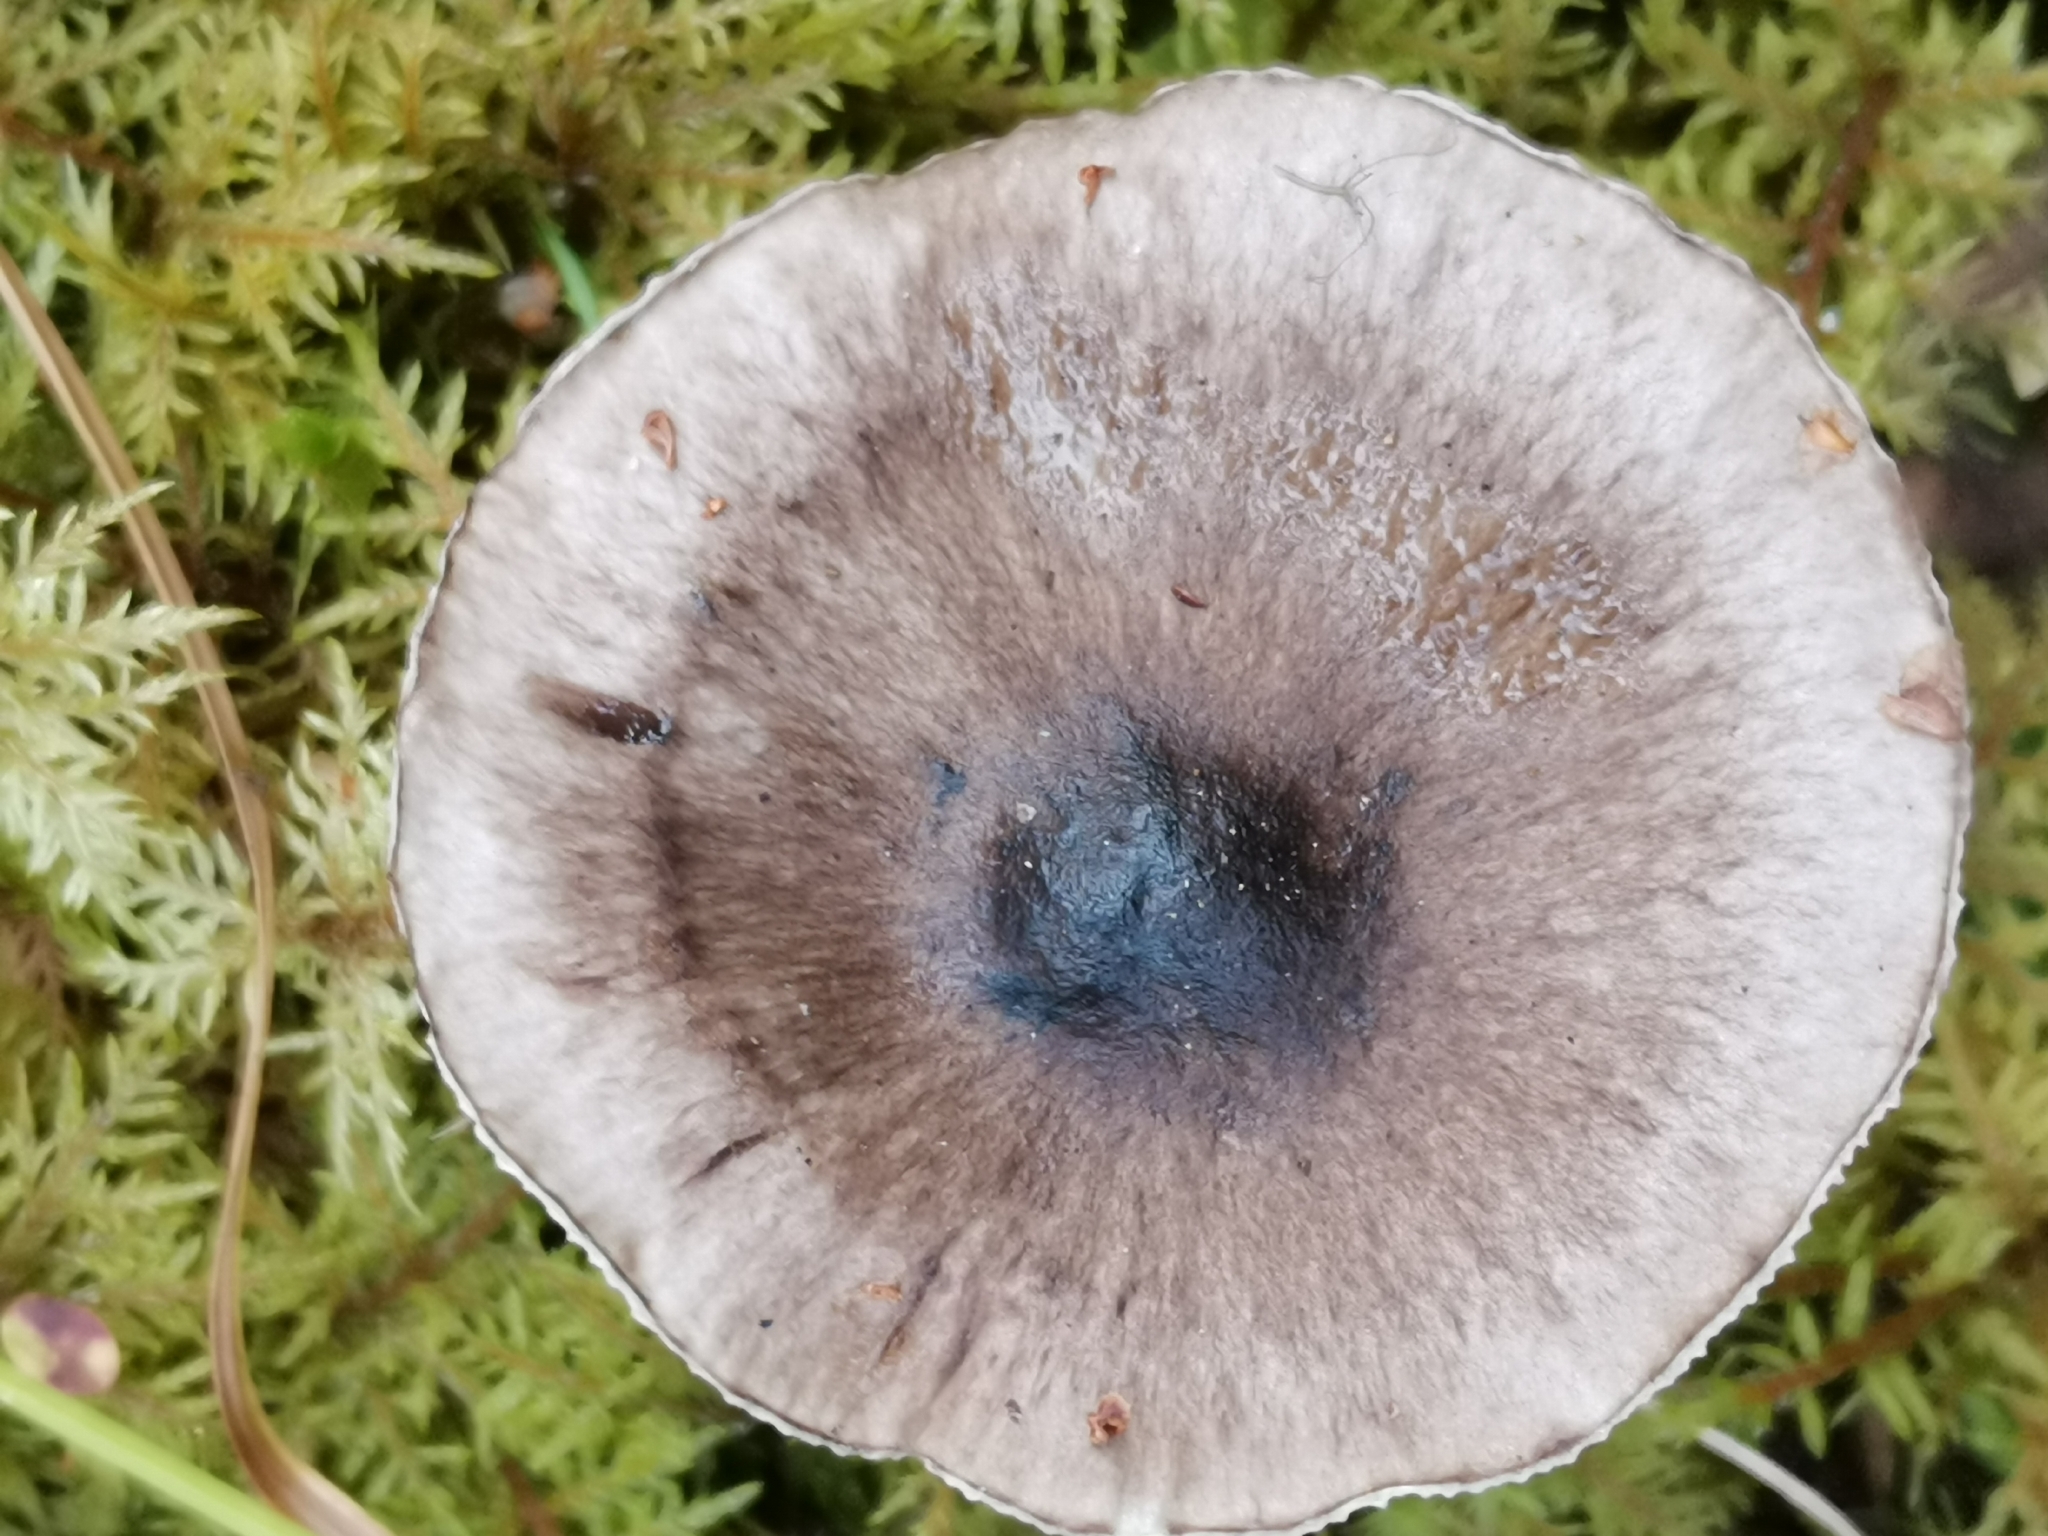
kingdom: Fungi
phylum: Basidiomycota
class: Agaricomycetes
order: Agaricales
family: Hygrophoraceae
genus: Hygrophorus
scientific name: Hygrophorus olivaceoalbus
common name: Olive wax cap
